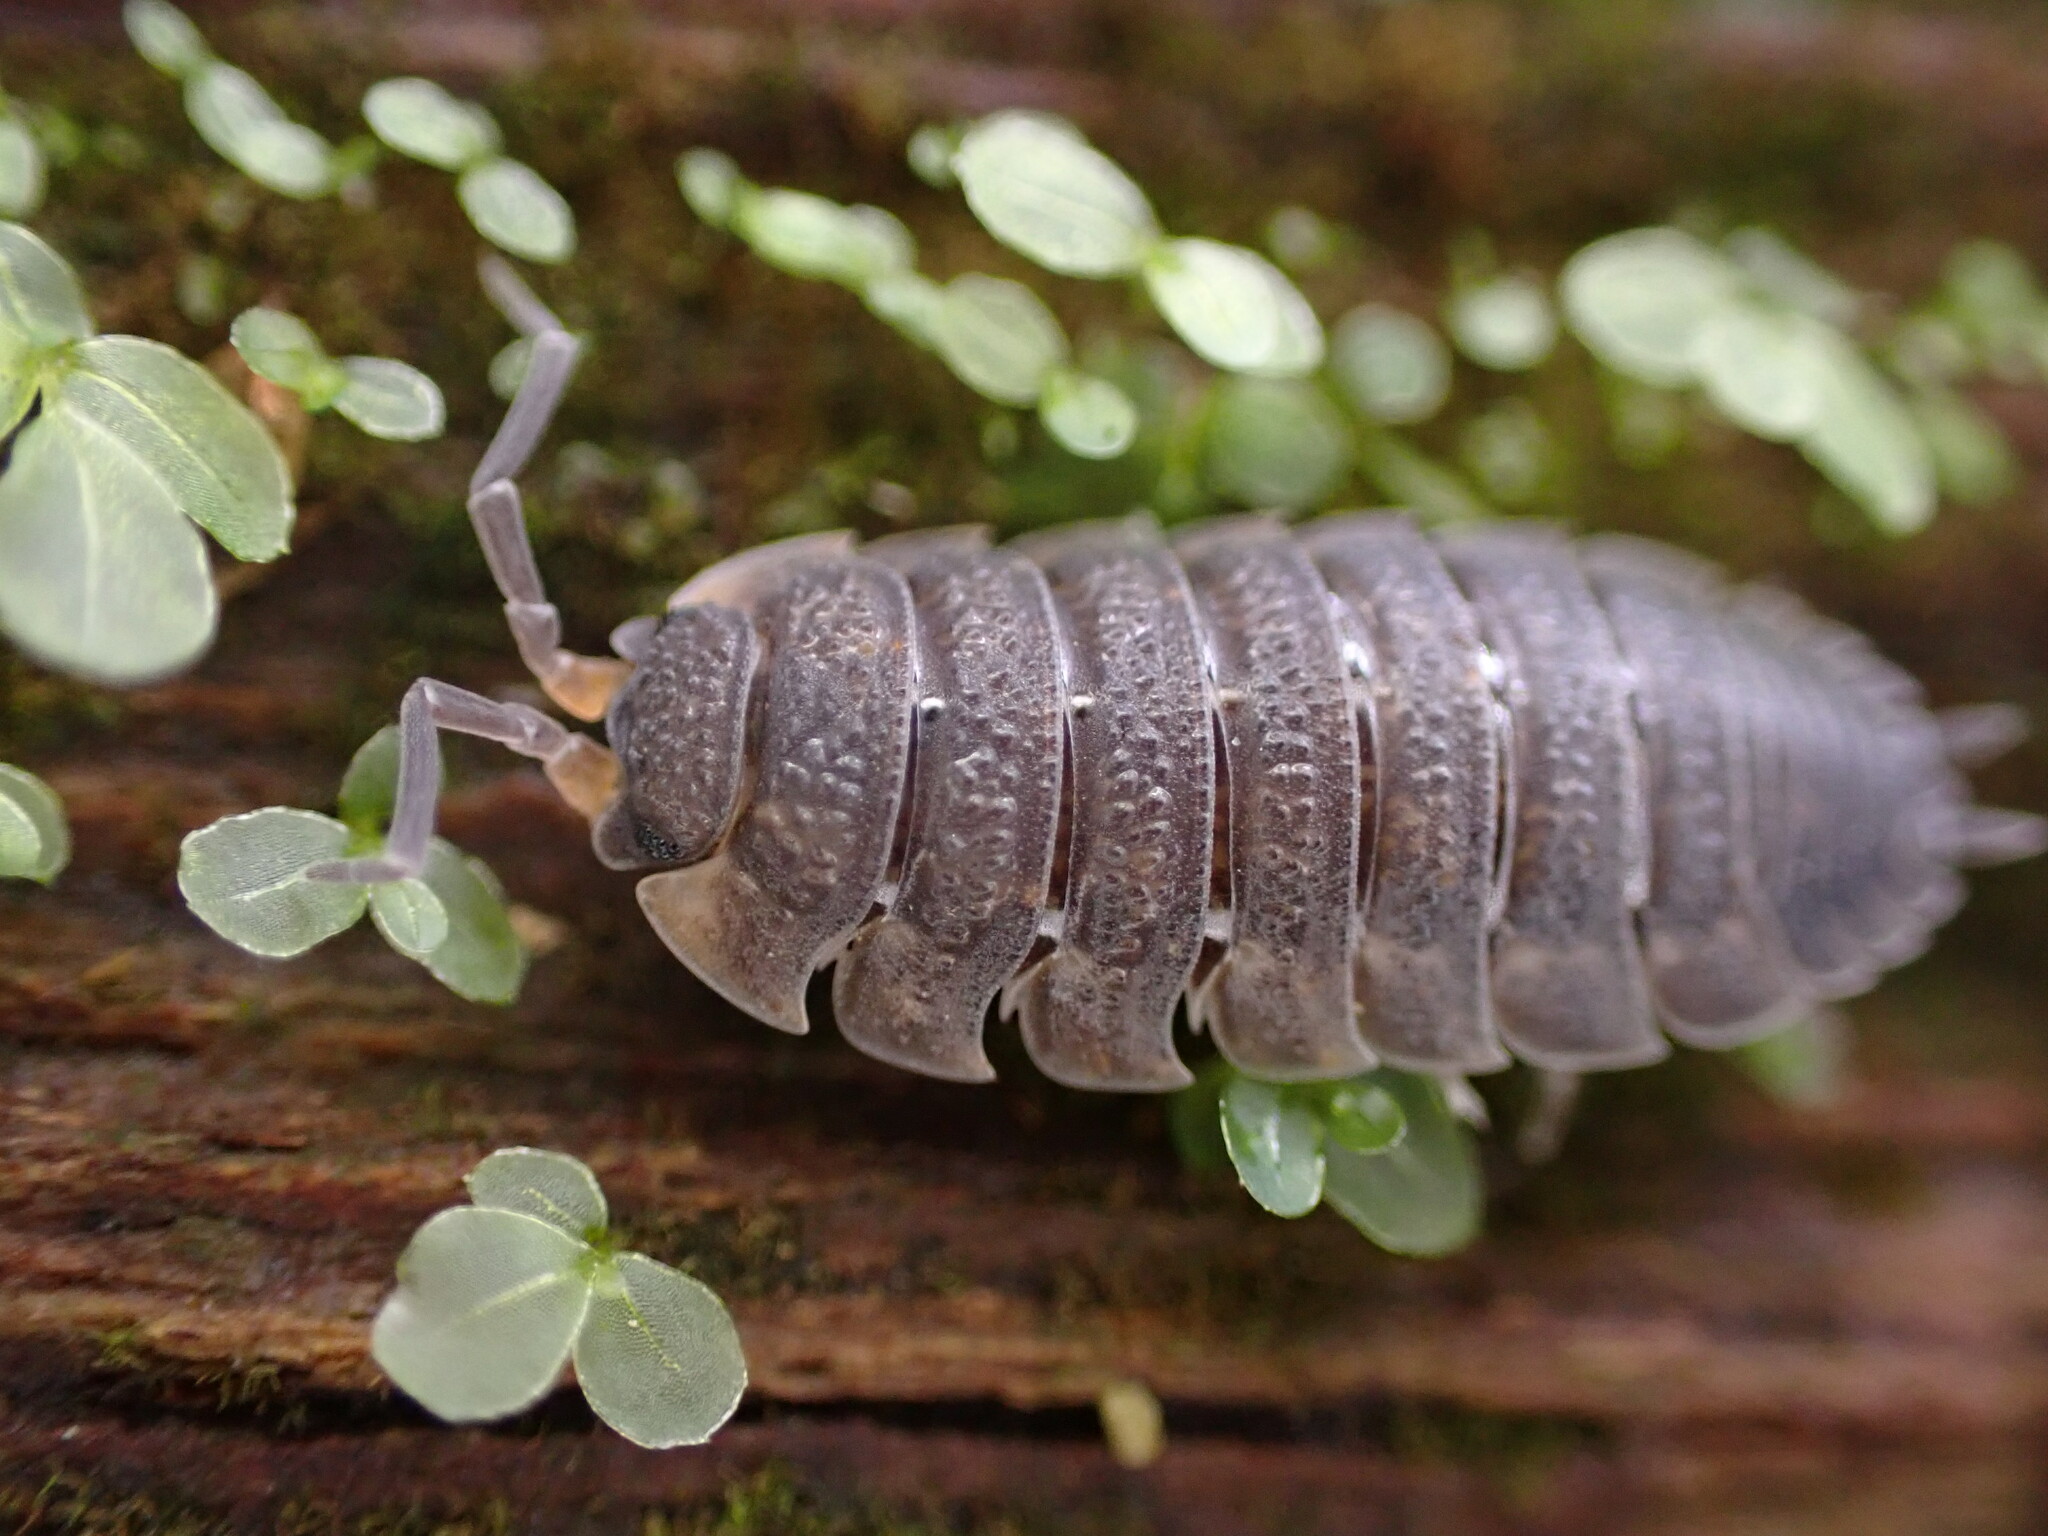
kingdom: Animalia
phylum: Arthropoda
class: Malacostraca
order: Isopoda
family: Porcellionidae
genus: Porcellio
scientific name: Porcellio scaber
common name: Common rough woodlouse
